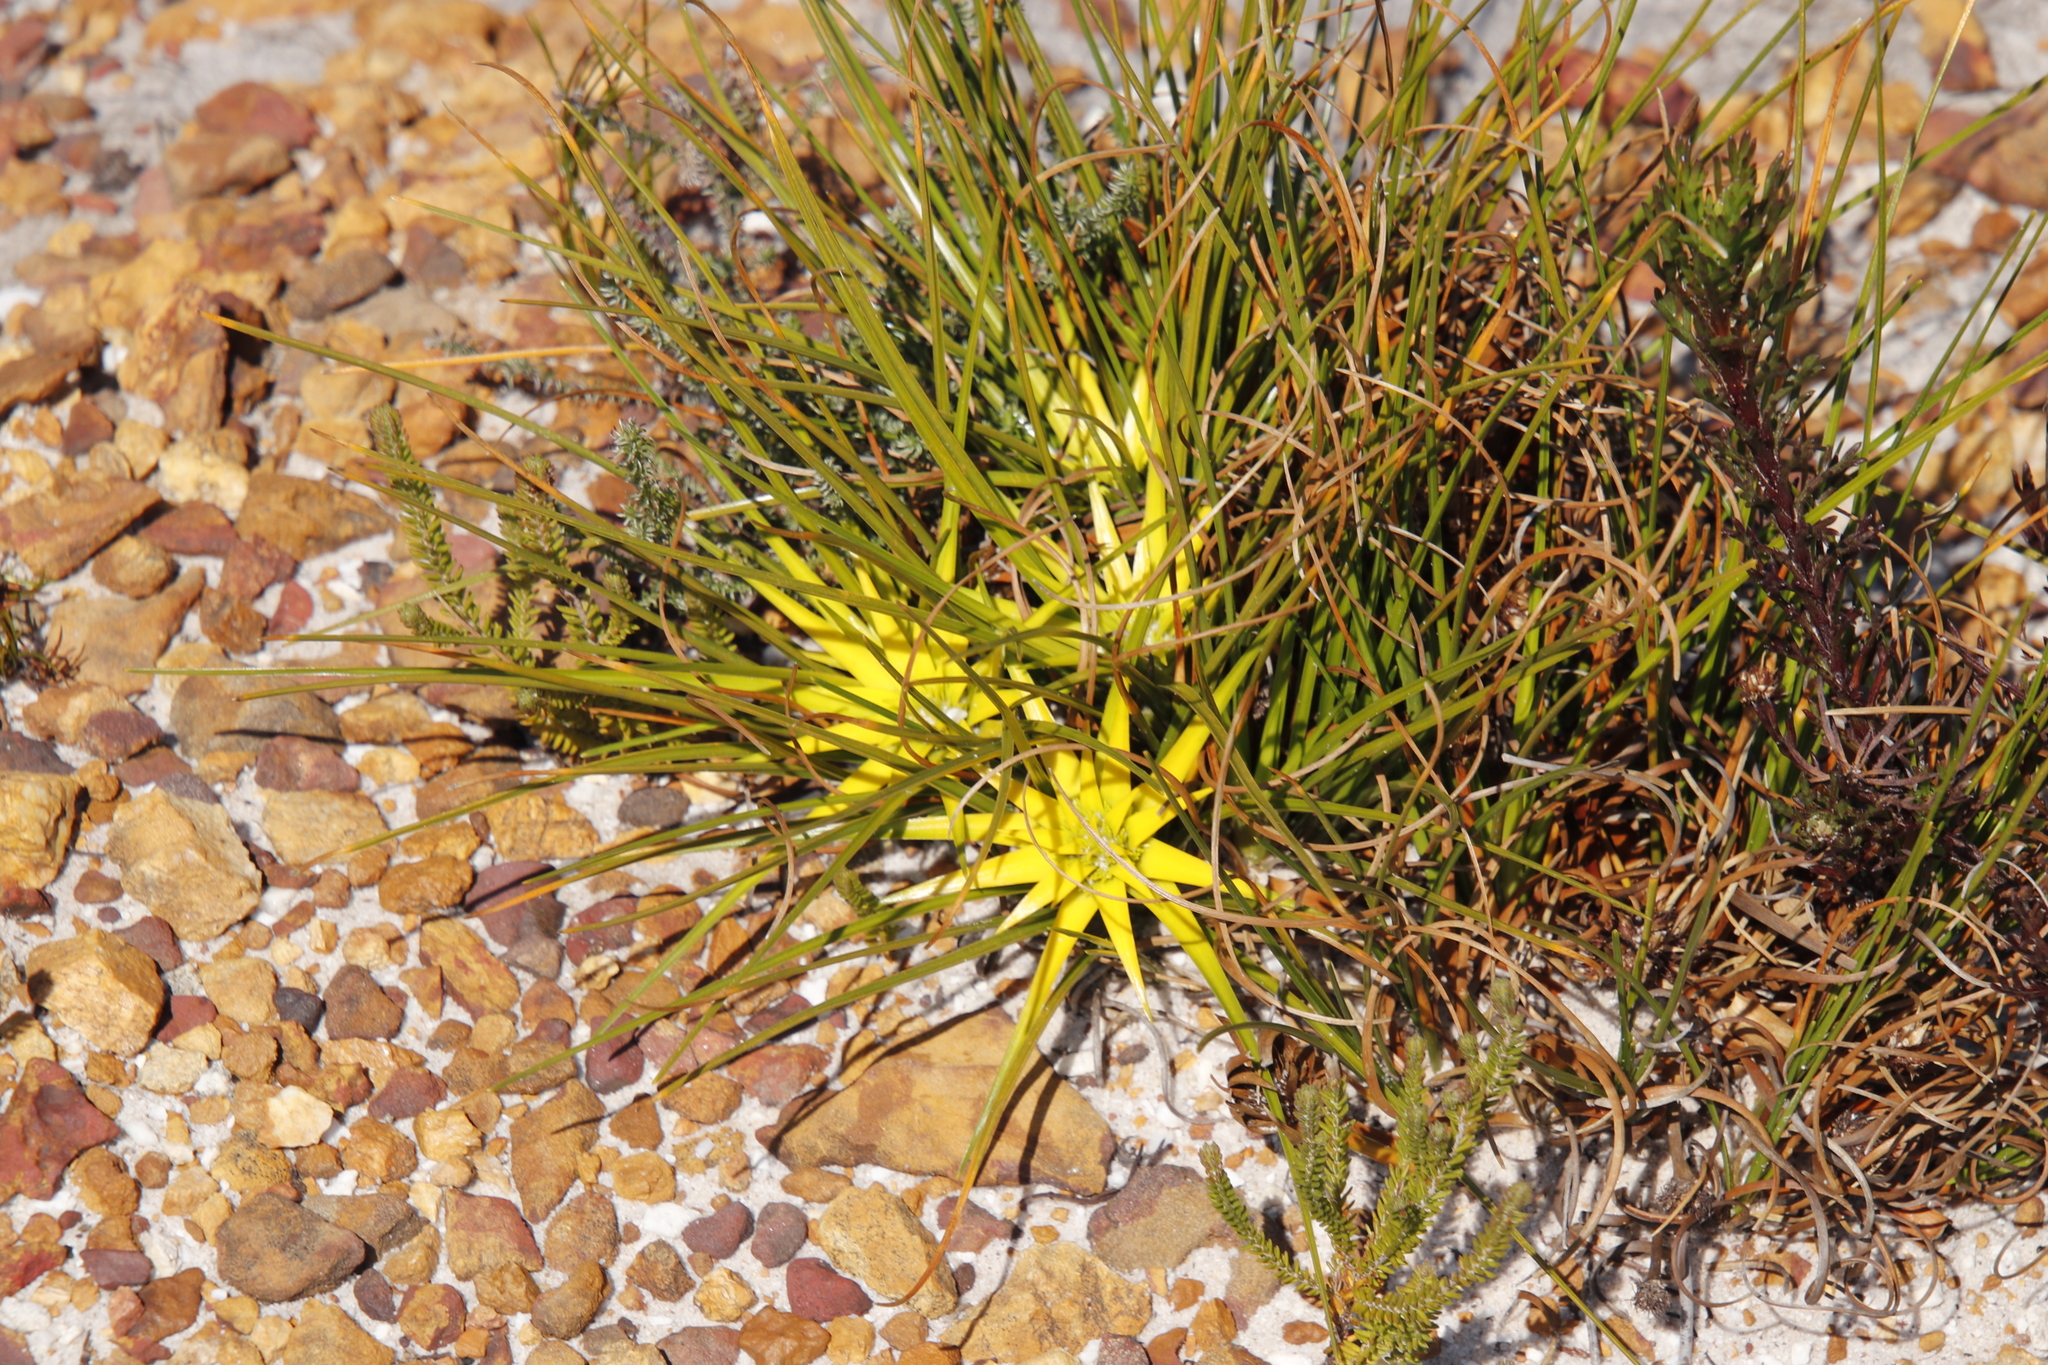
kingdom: Plantae
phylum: Tracheophyta
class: Liliopsida
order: Poales
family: Cyperaceae
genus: Ficinia
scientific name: Ficinia radiata
